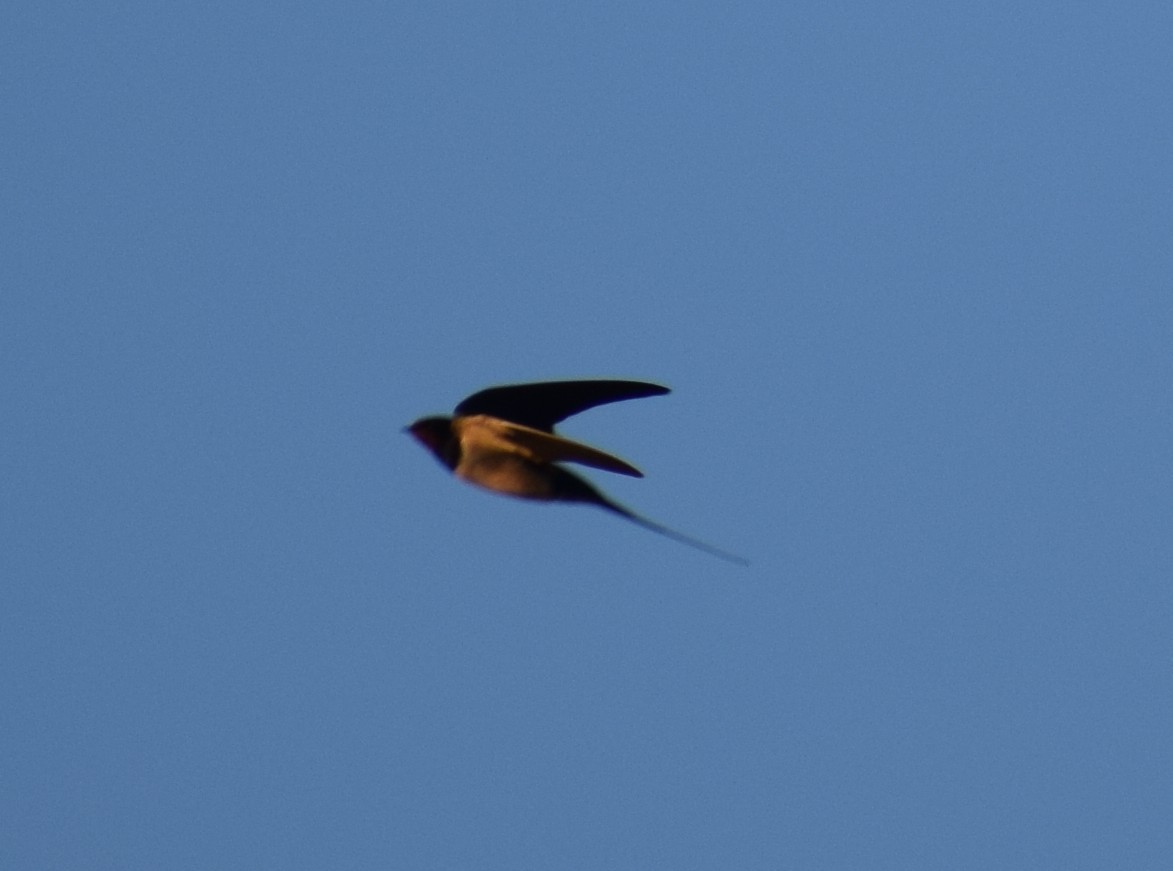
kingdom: Animalia
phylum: Chordata
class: Aves
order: Passeriformes
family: Hirundinidae
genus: Hirundo
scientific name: Hirundo rustica
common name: Barn swallow
